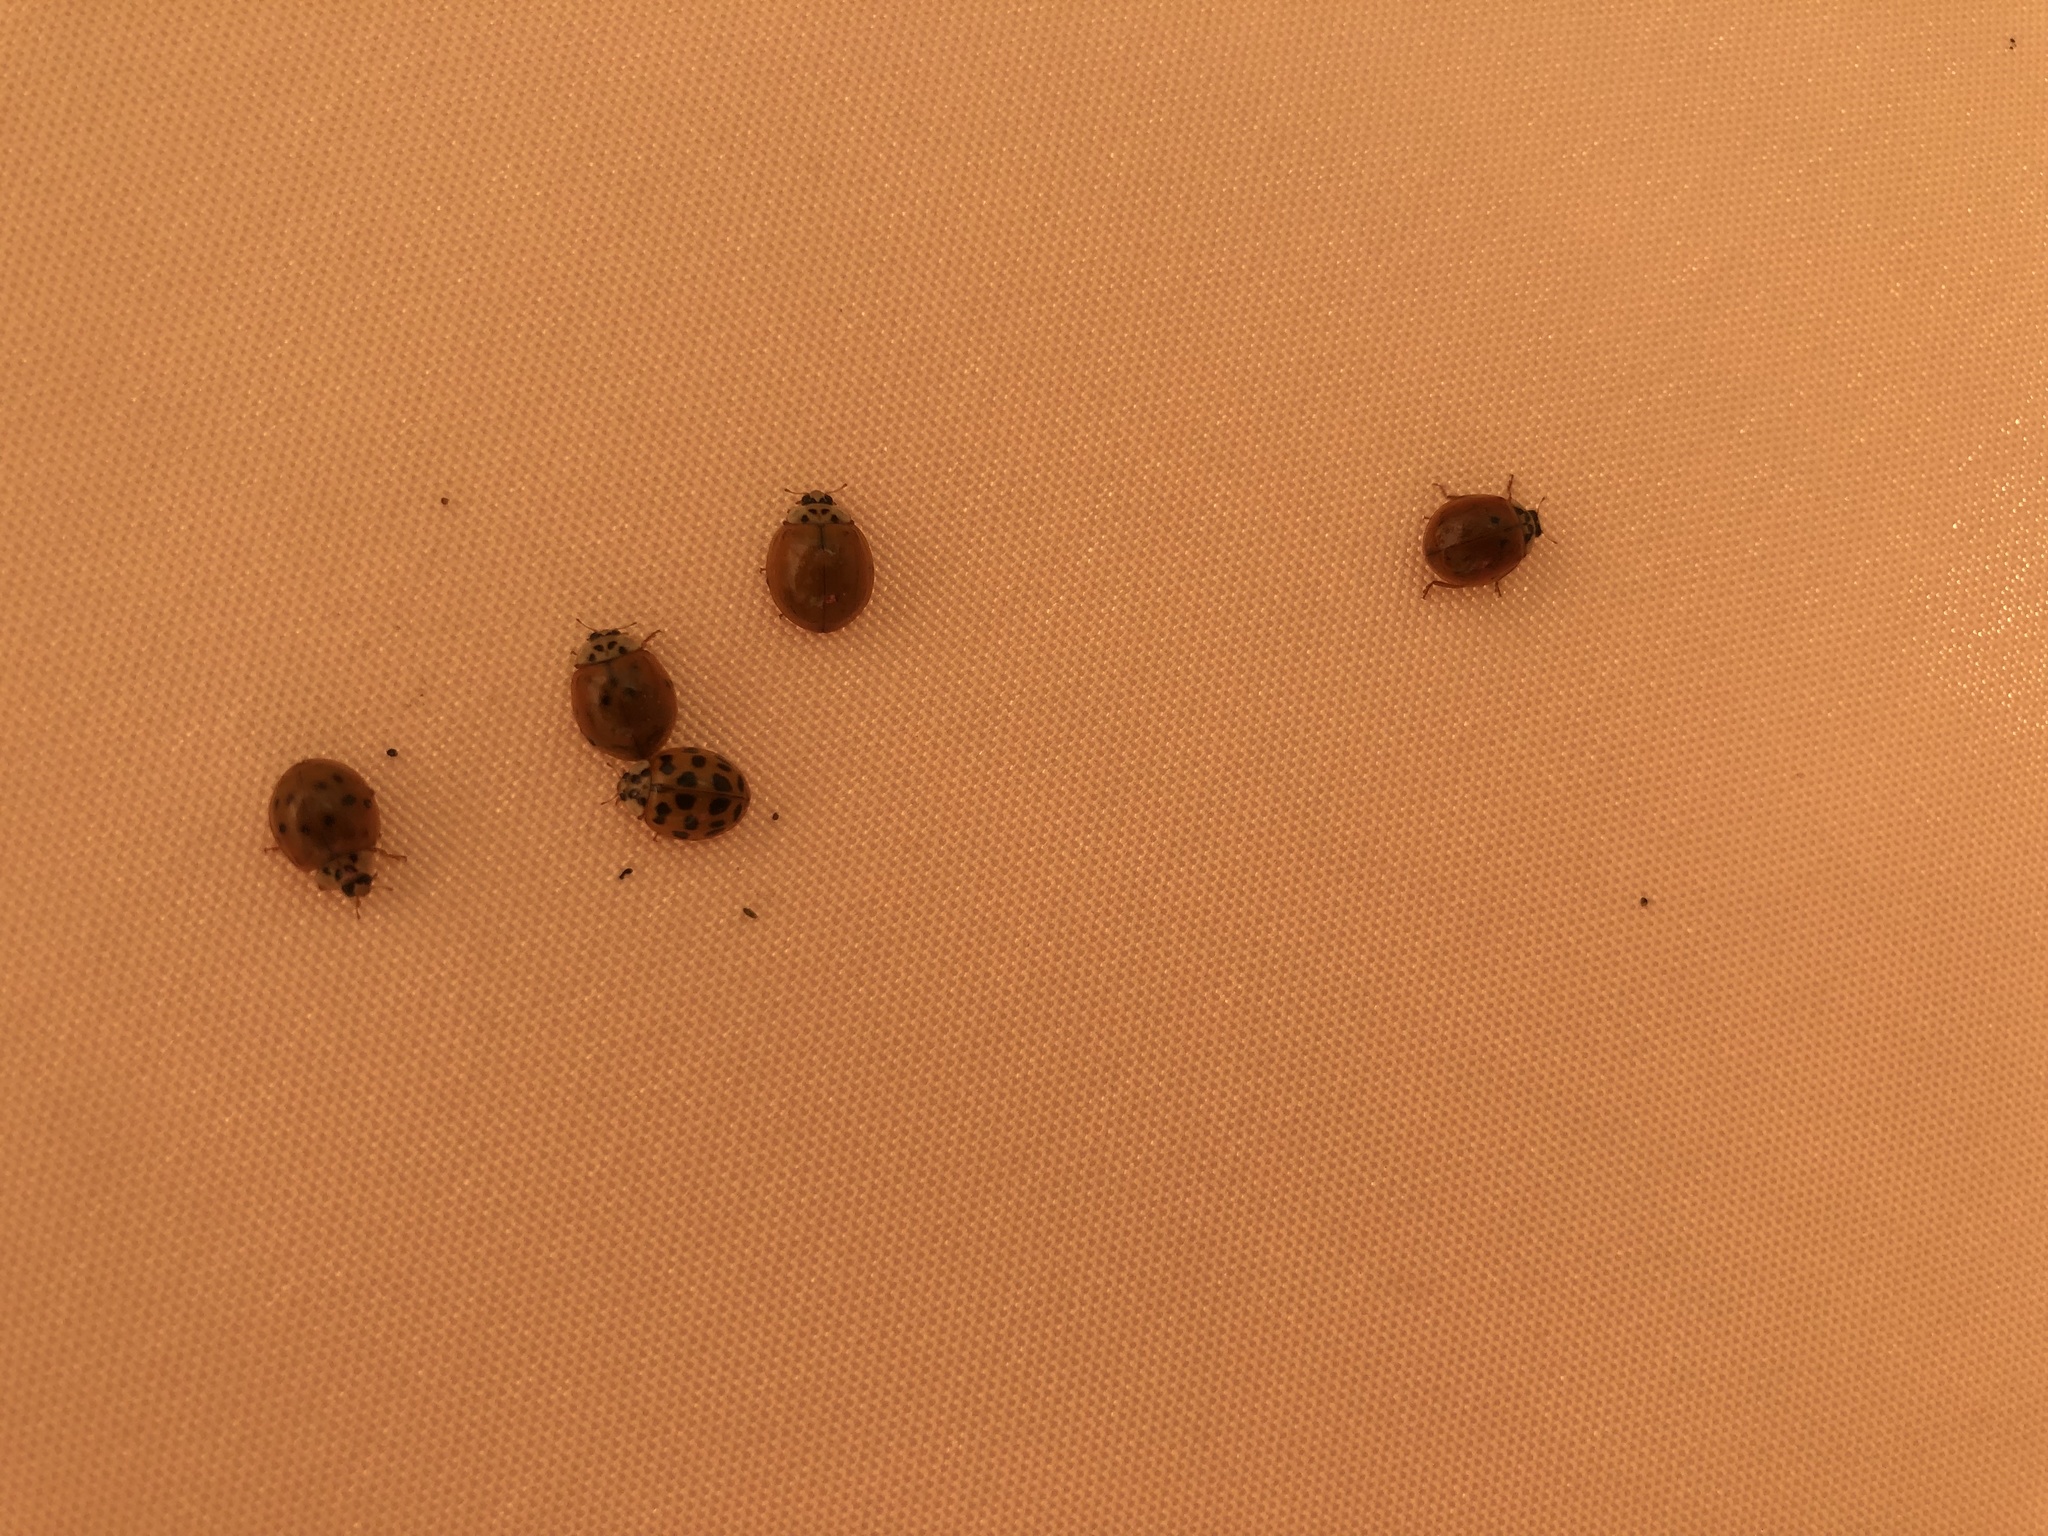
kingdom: Animalia
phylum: Arthropoda
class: Insecta
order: Coleoptera
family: Coccinellidae
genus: Harmonia
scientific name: Harmonia axyridis
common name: Harlequin ladybird
